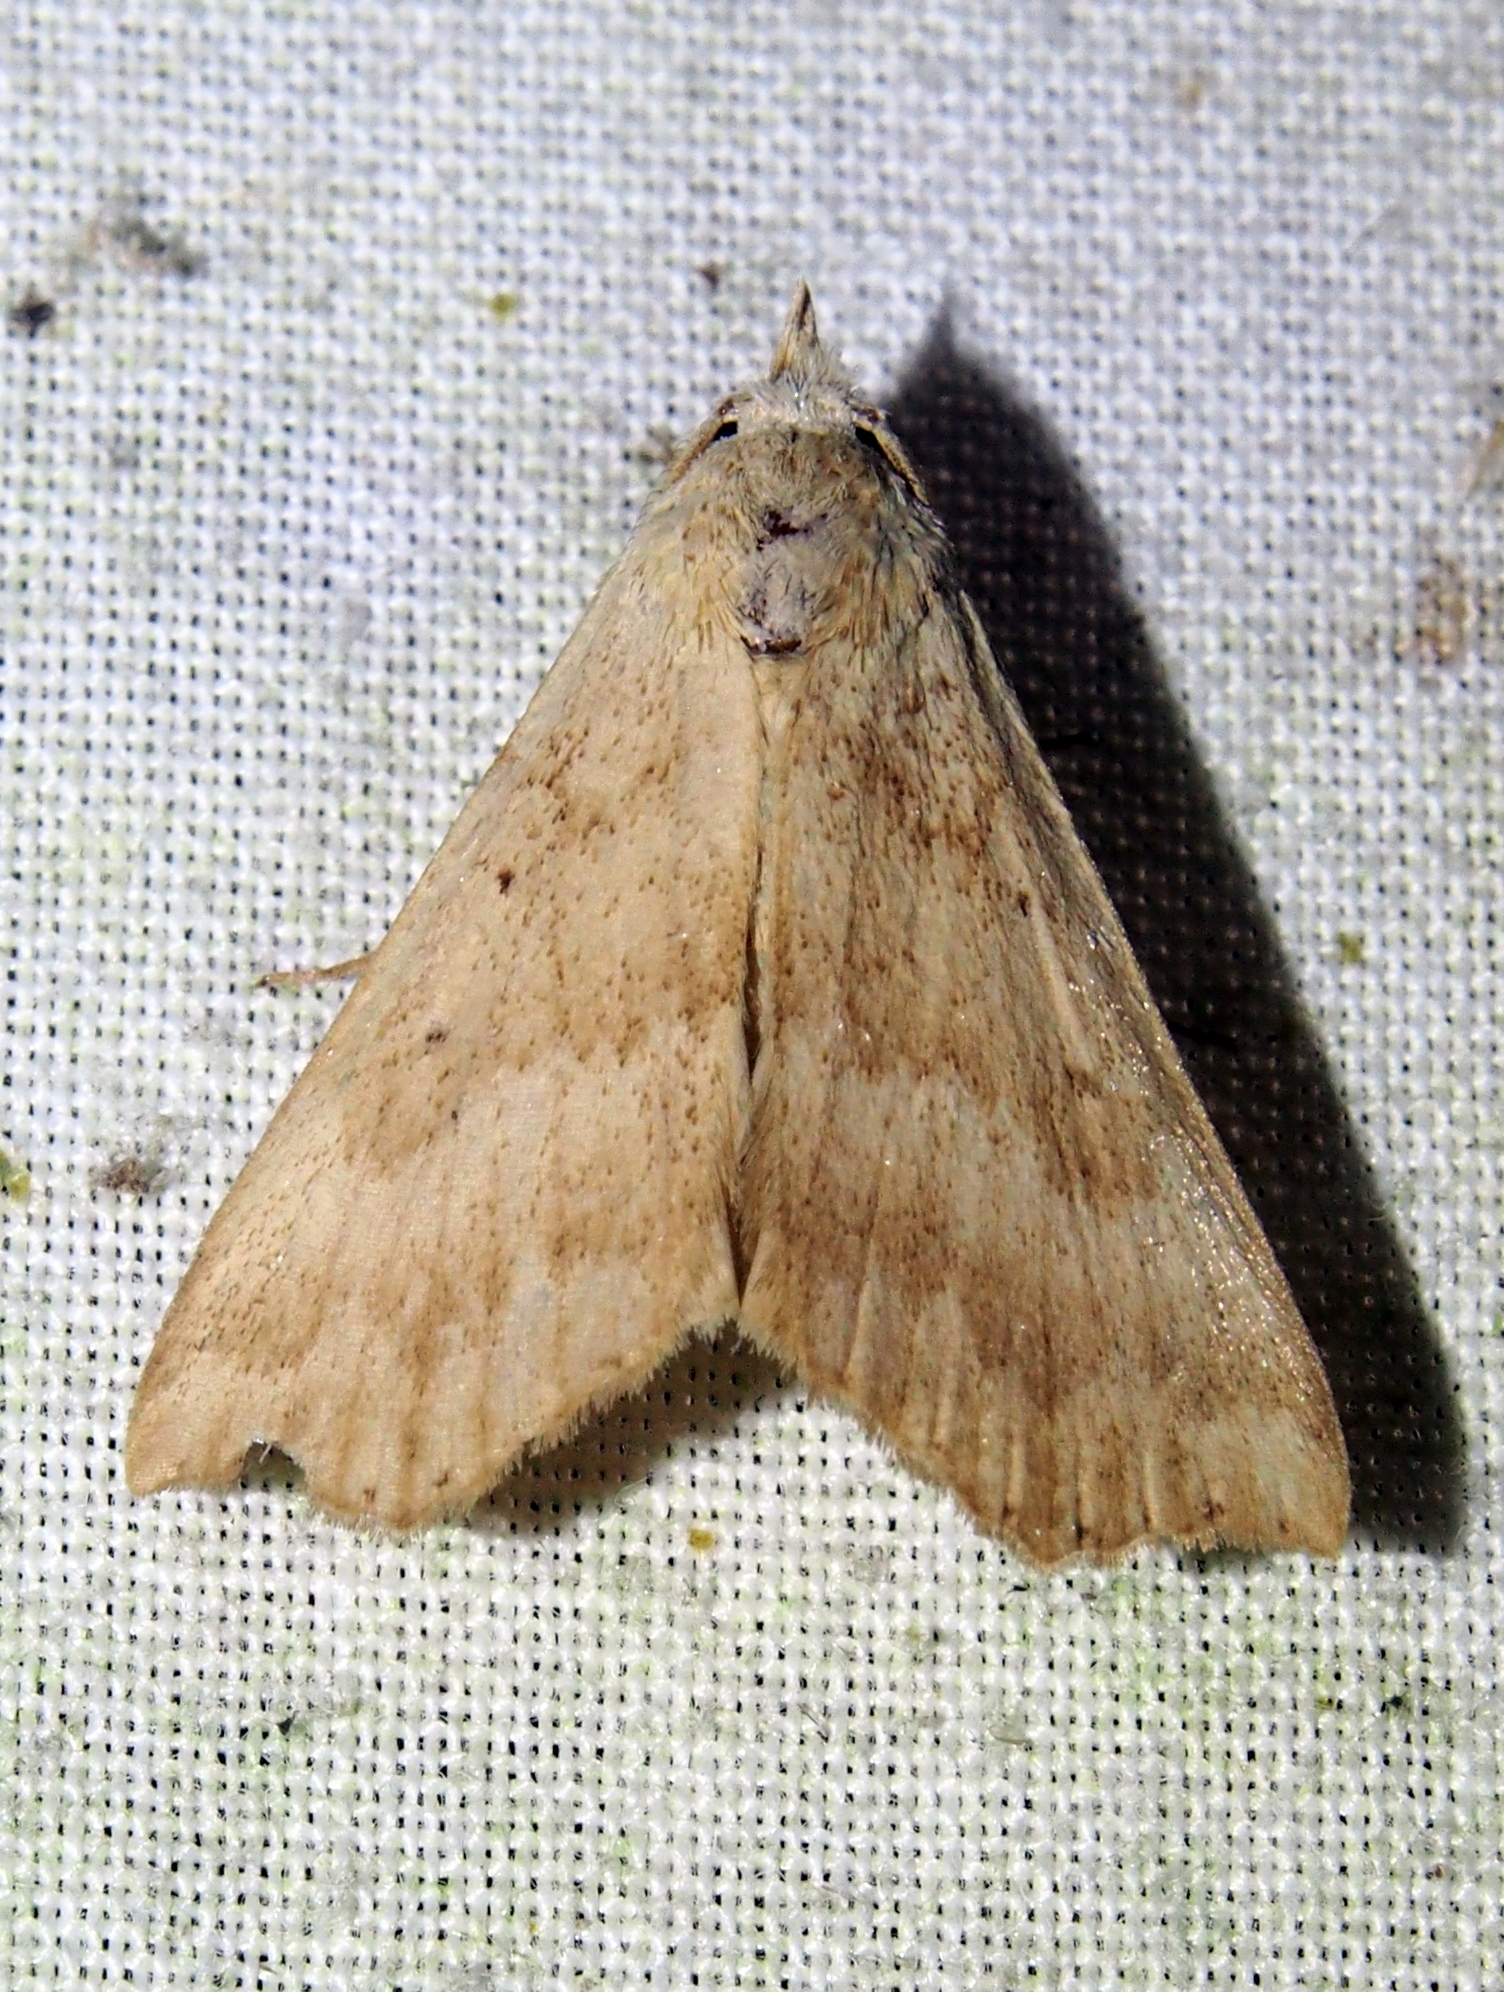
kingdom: Animalia
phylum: Arthropoda
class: Insecta
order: Lepidoptera
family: Erebidae
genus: Juncaria
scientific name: Juncaria pallens
